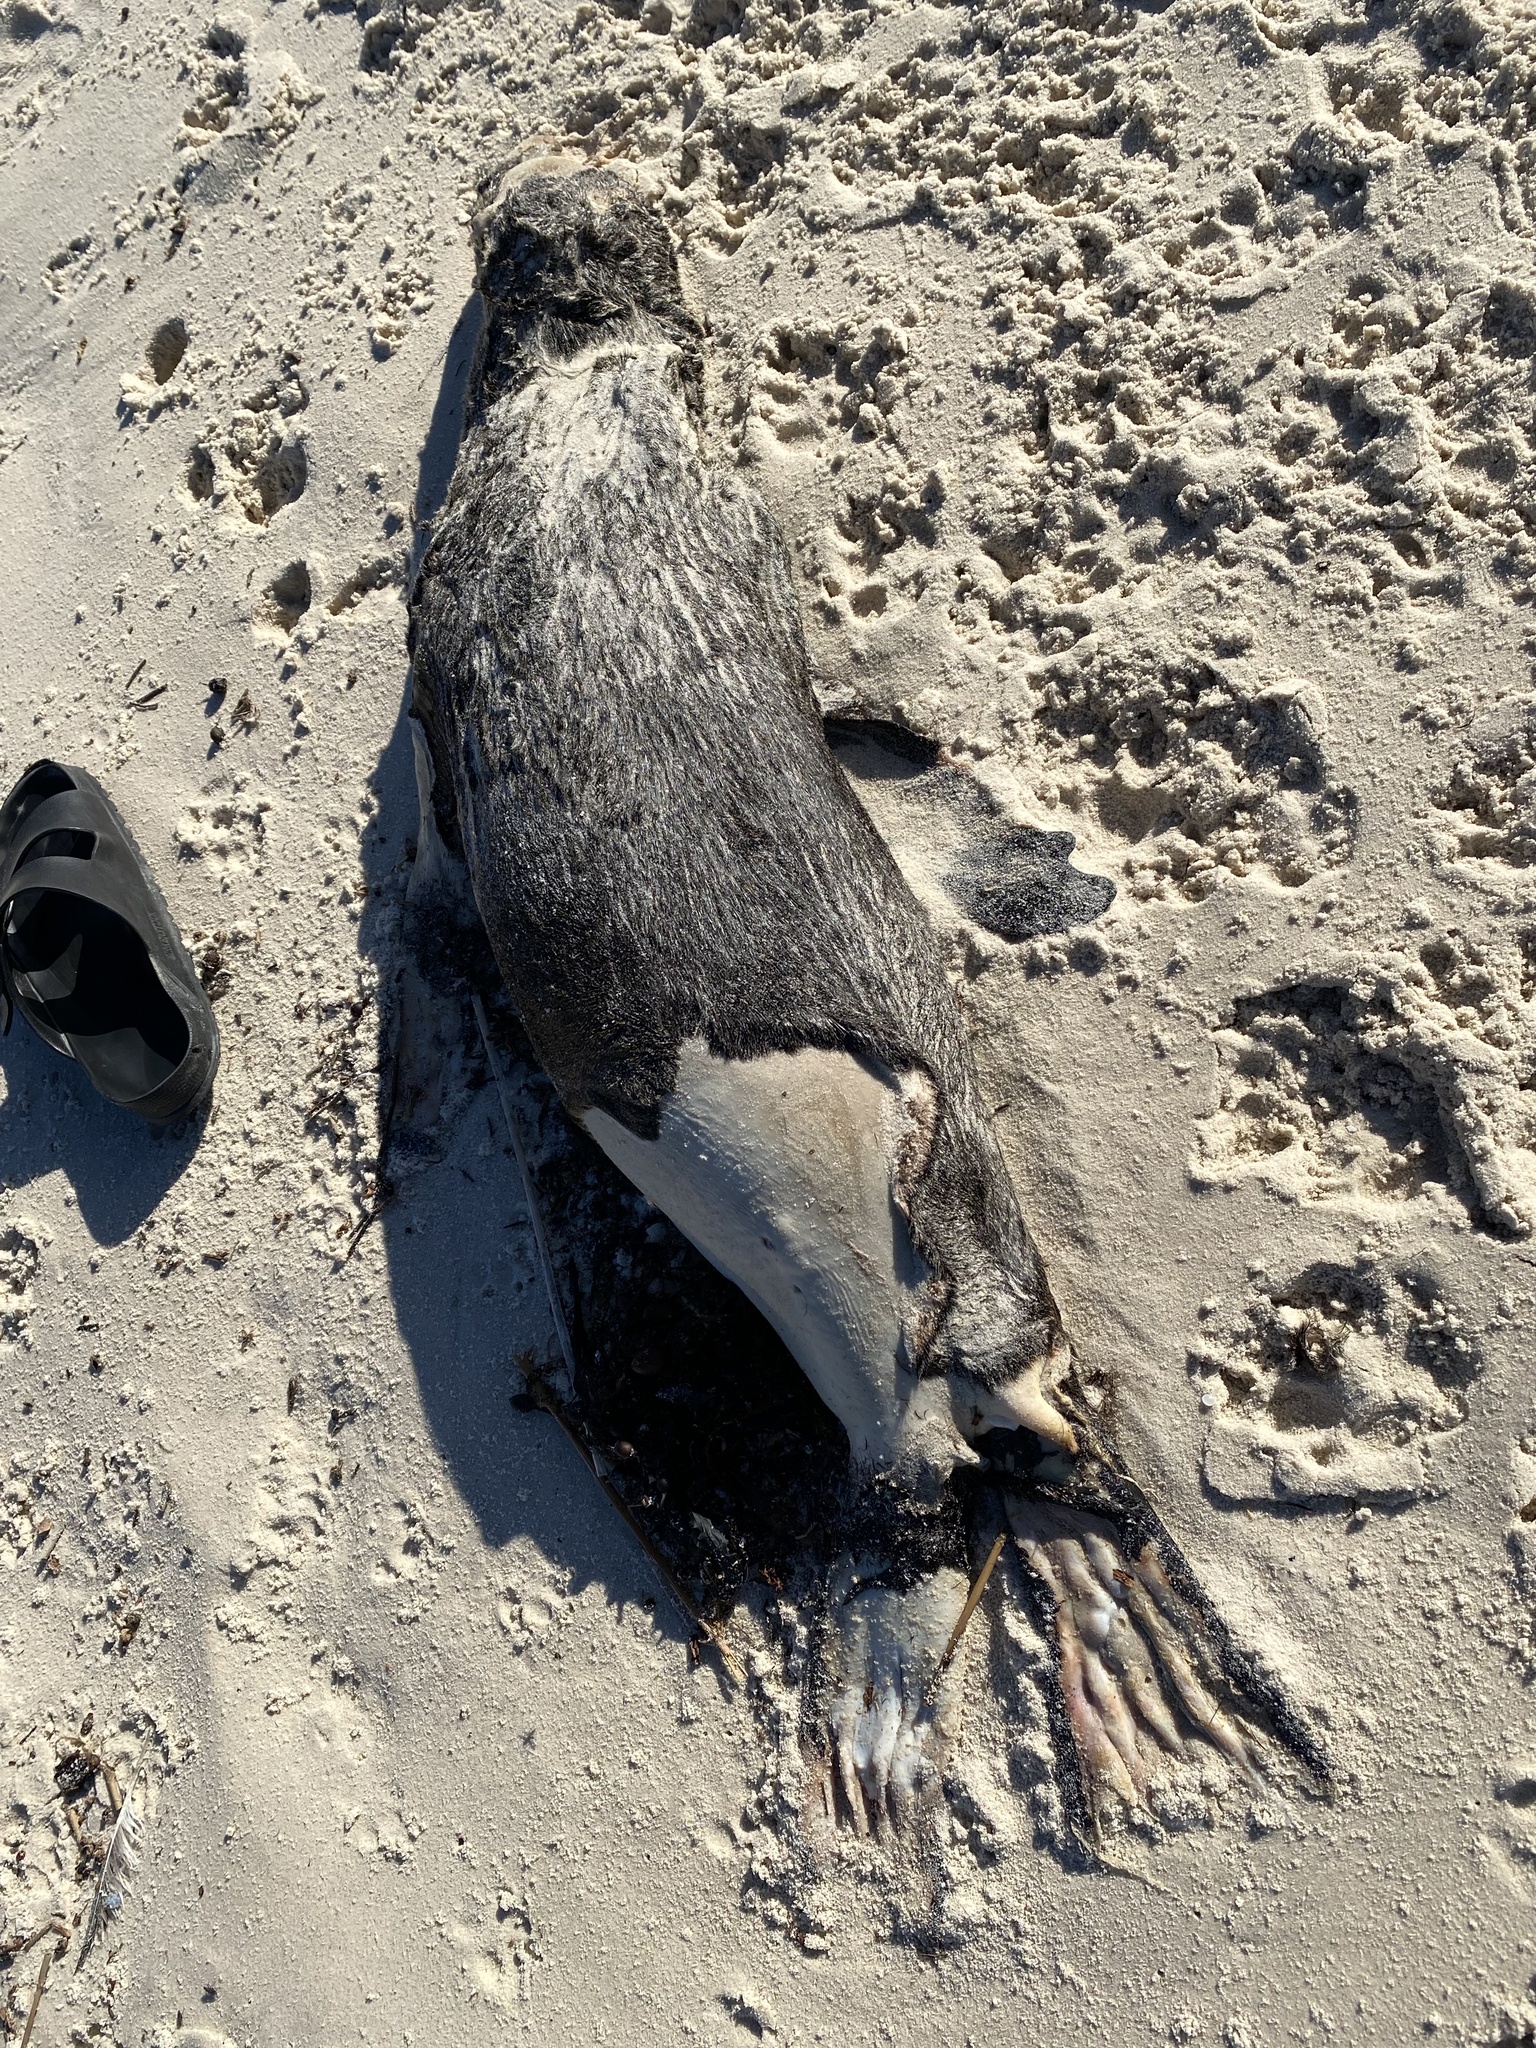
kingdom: Animalia
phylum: Chordata
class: Mammalia
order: Carnivora
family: Otariidae
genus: Arctocephalus
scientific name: Arctocephalus pusillus
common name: Brown fur seal
